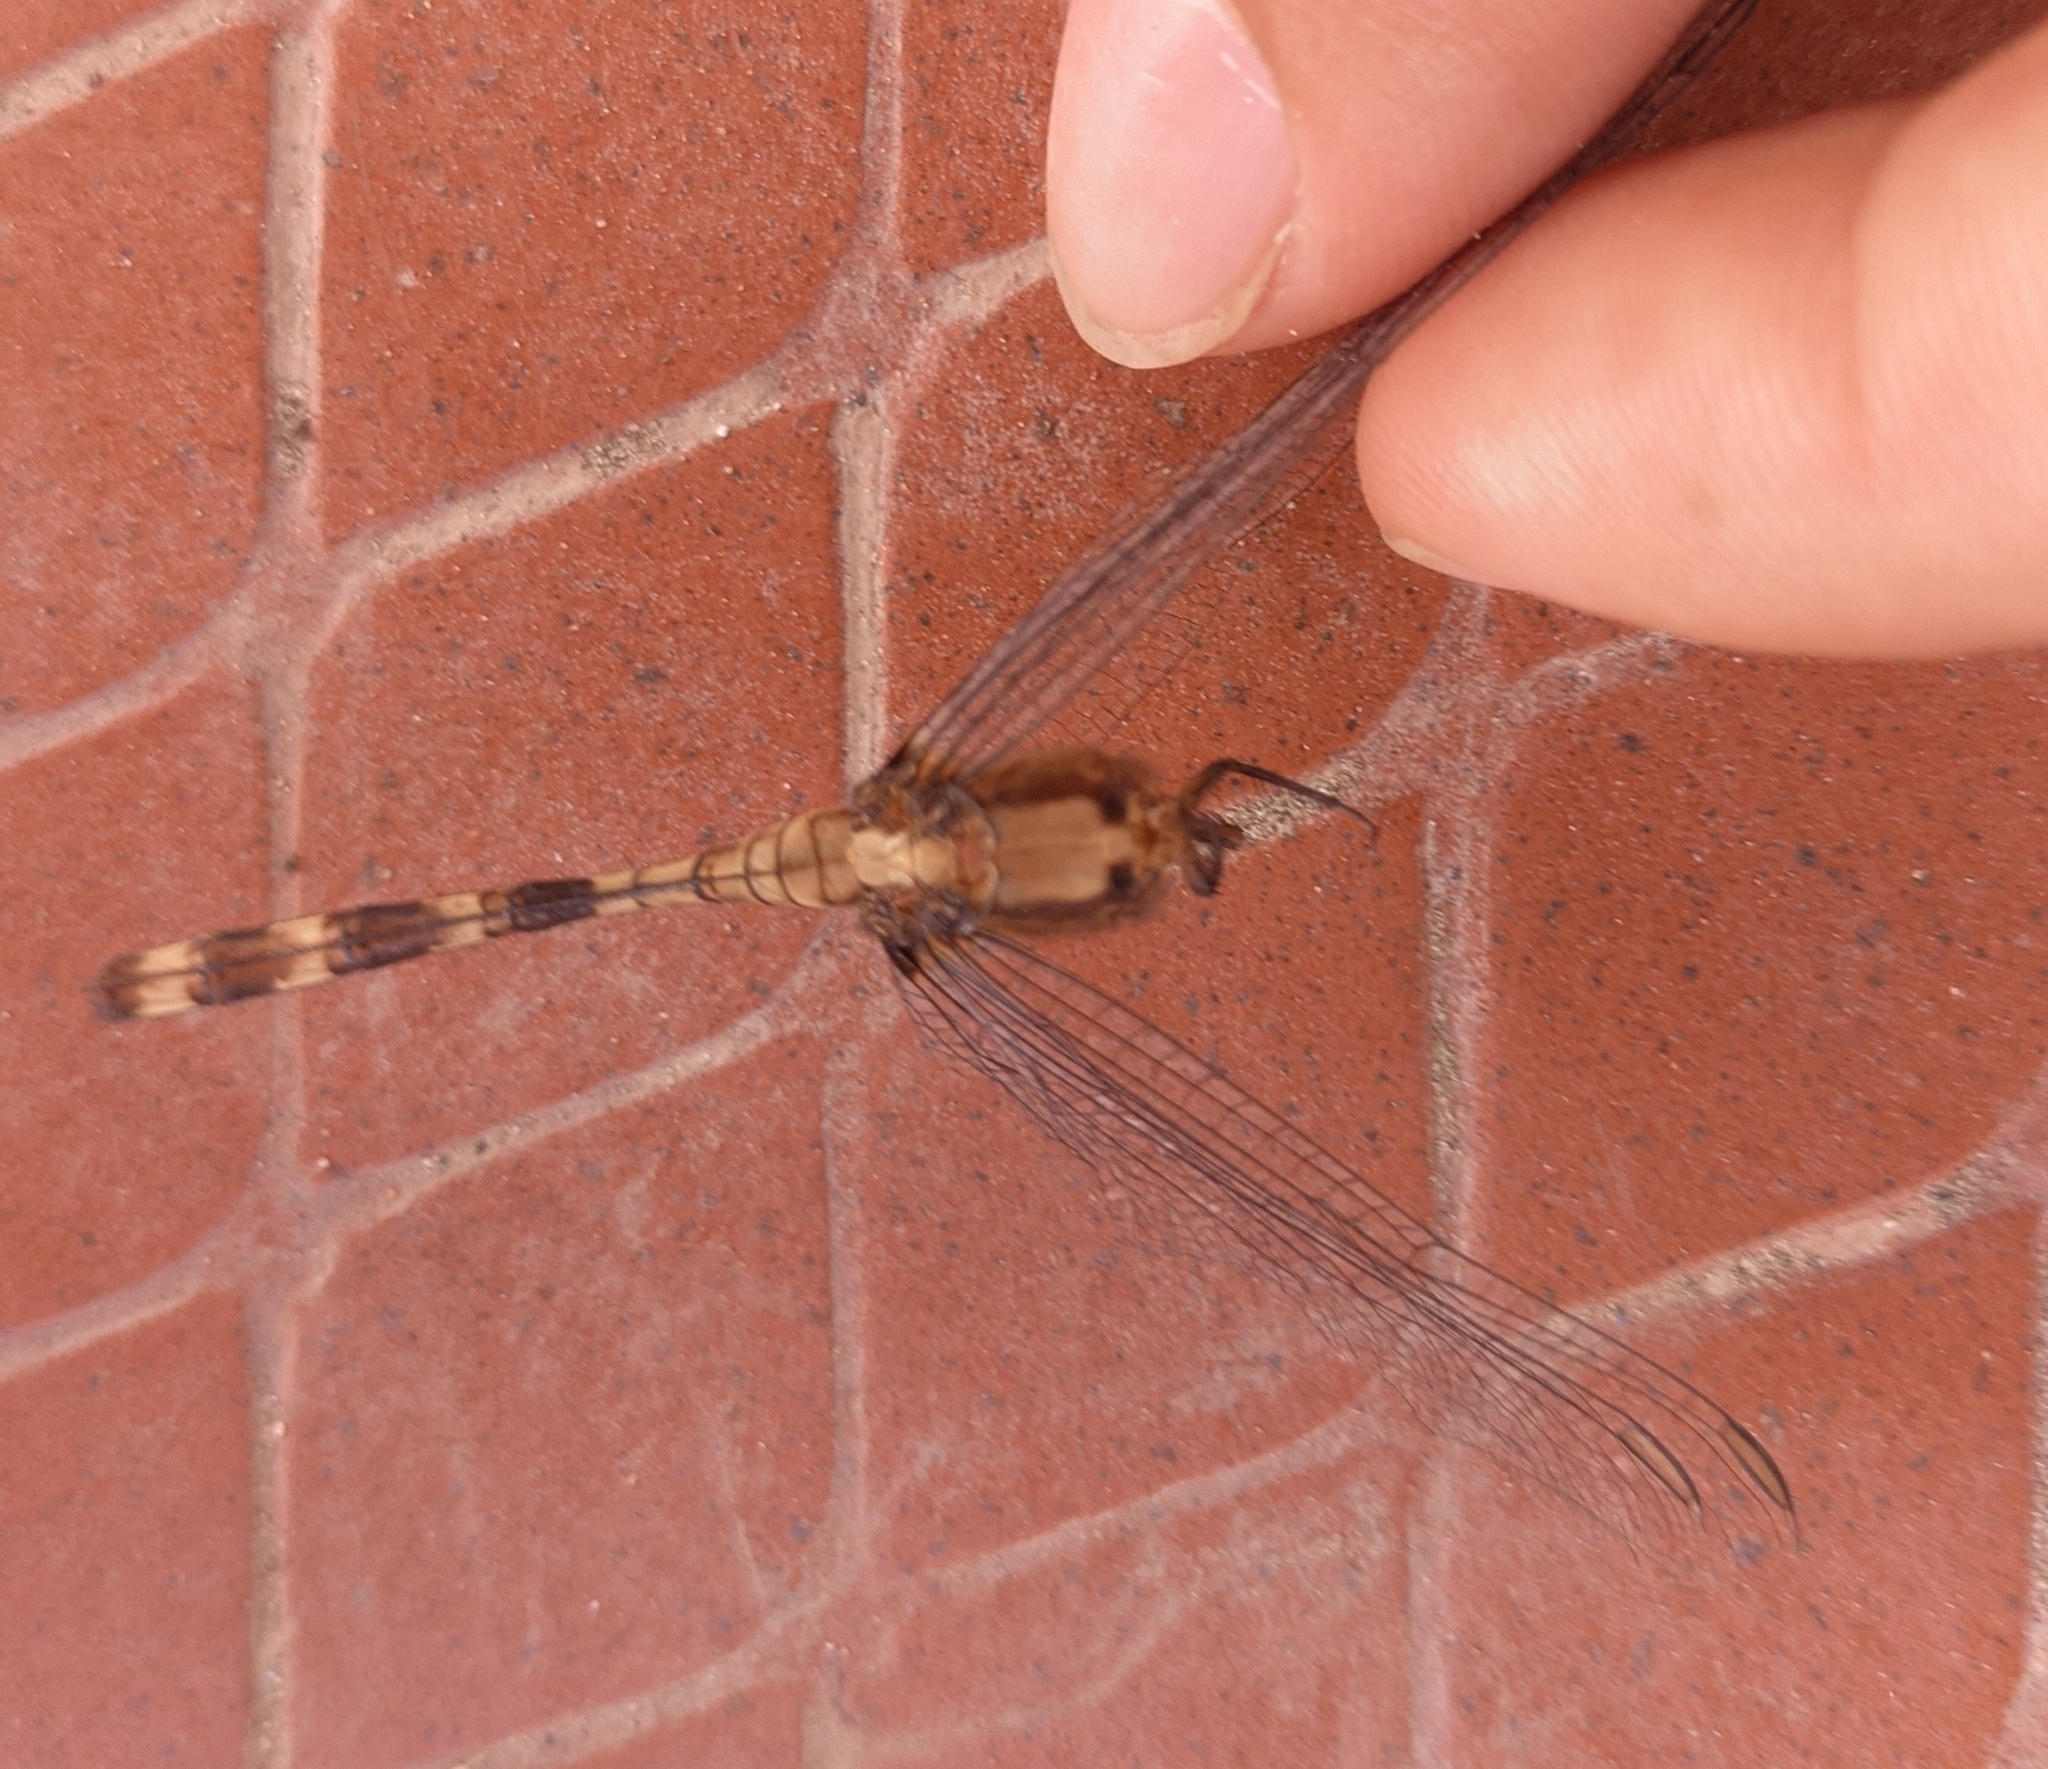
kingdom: Animalia
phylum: Arthropoda
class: Insecta
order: Odonata
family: Libellulidae
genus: Erythemis
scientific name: Erythemis plebeja
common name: Pin-tailed pondhawk
